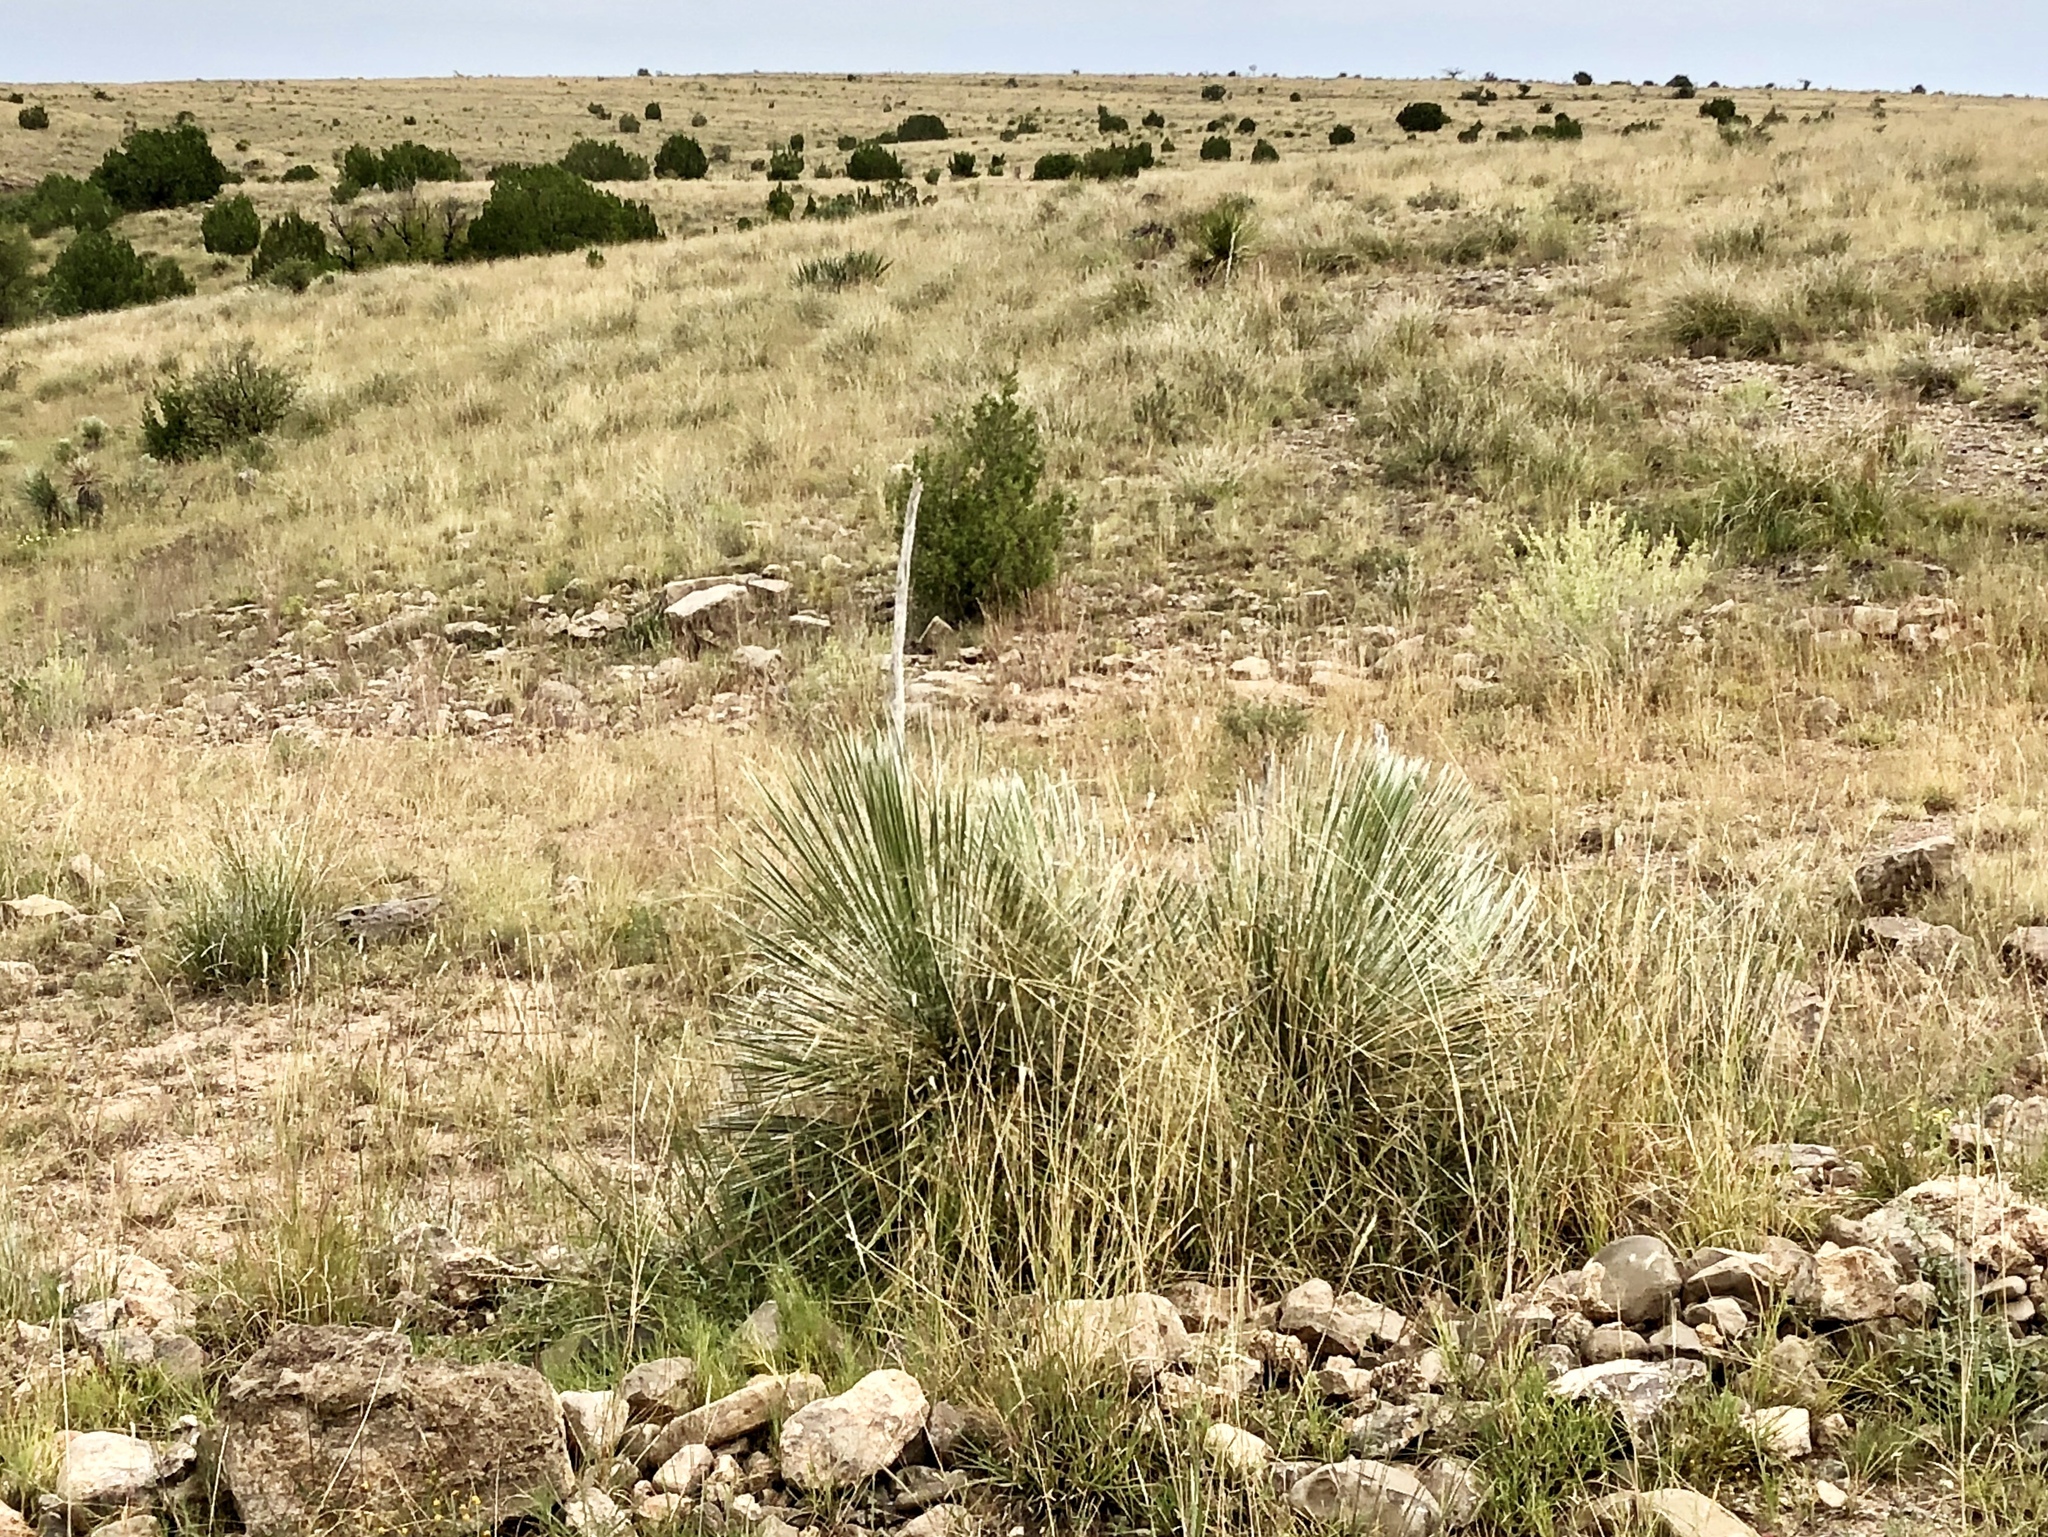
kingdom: Plantae
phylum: Tracheophyta
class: Liliopsida
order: Asparagales
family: Asparagaceae
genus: Yucca
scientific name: Yucca elata
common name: Palmella
